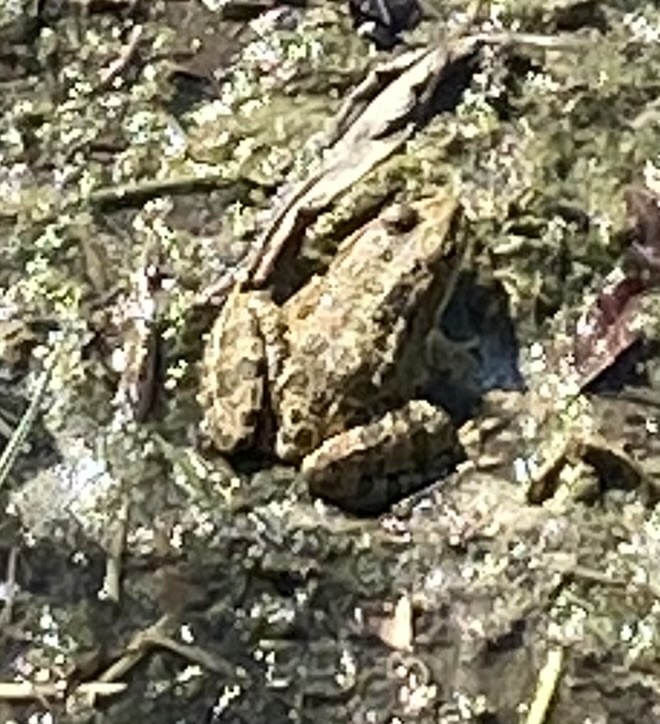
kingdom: Animalia
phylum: Chordata
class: Amphibia
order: Anura
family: Ranidae
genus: Pelophylax
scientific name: Pelophylax ridibundus
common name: Marsh frog
